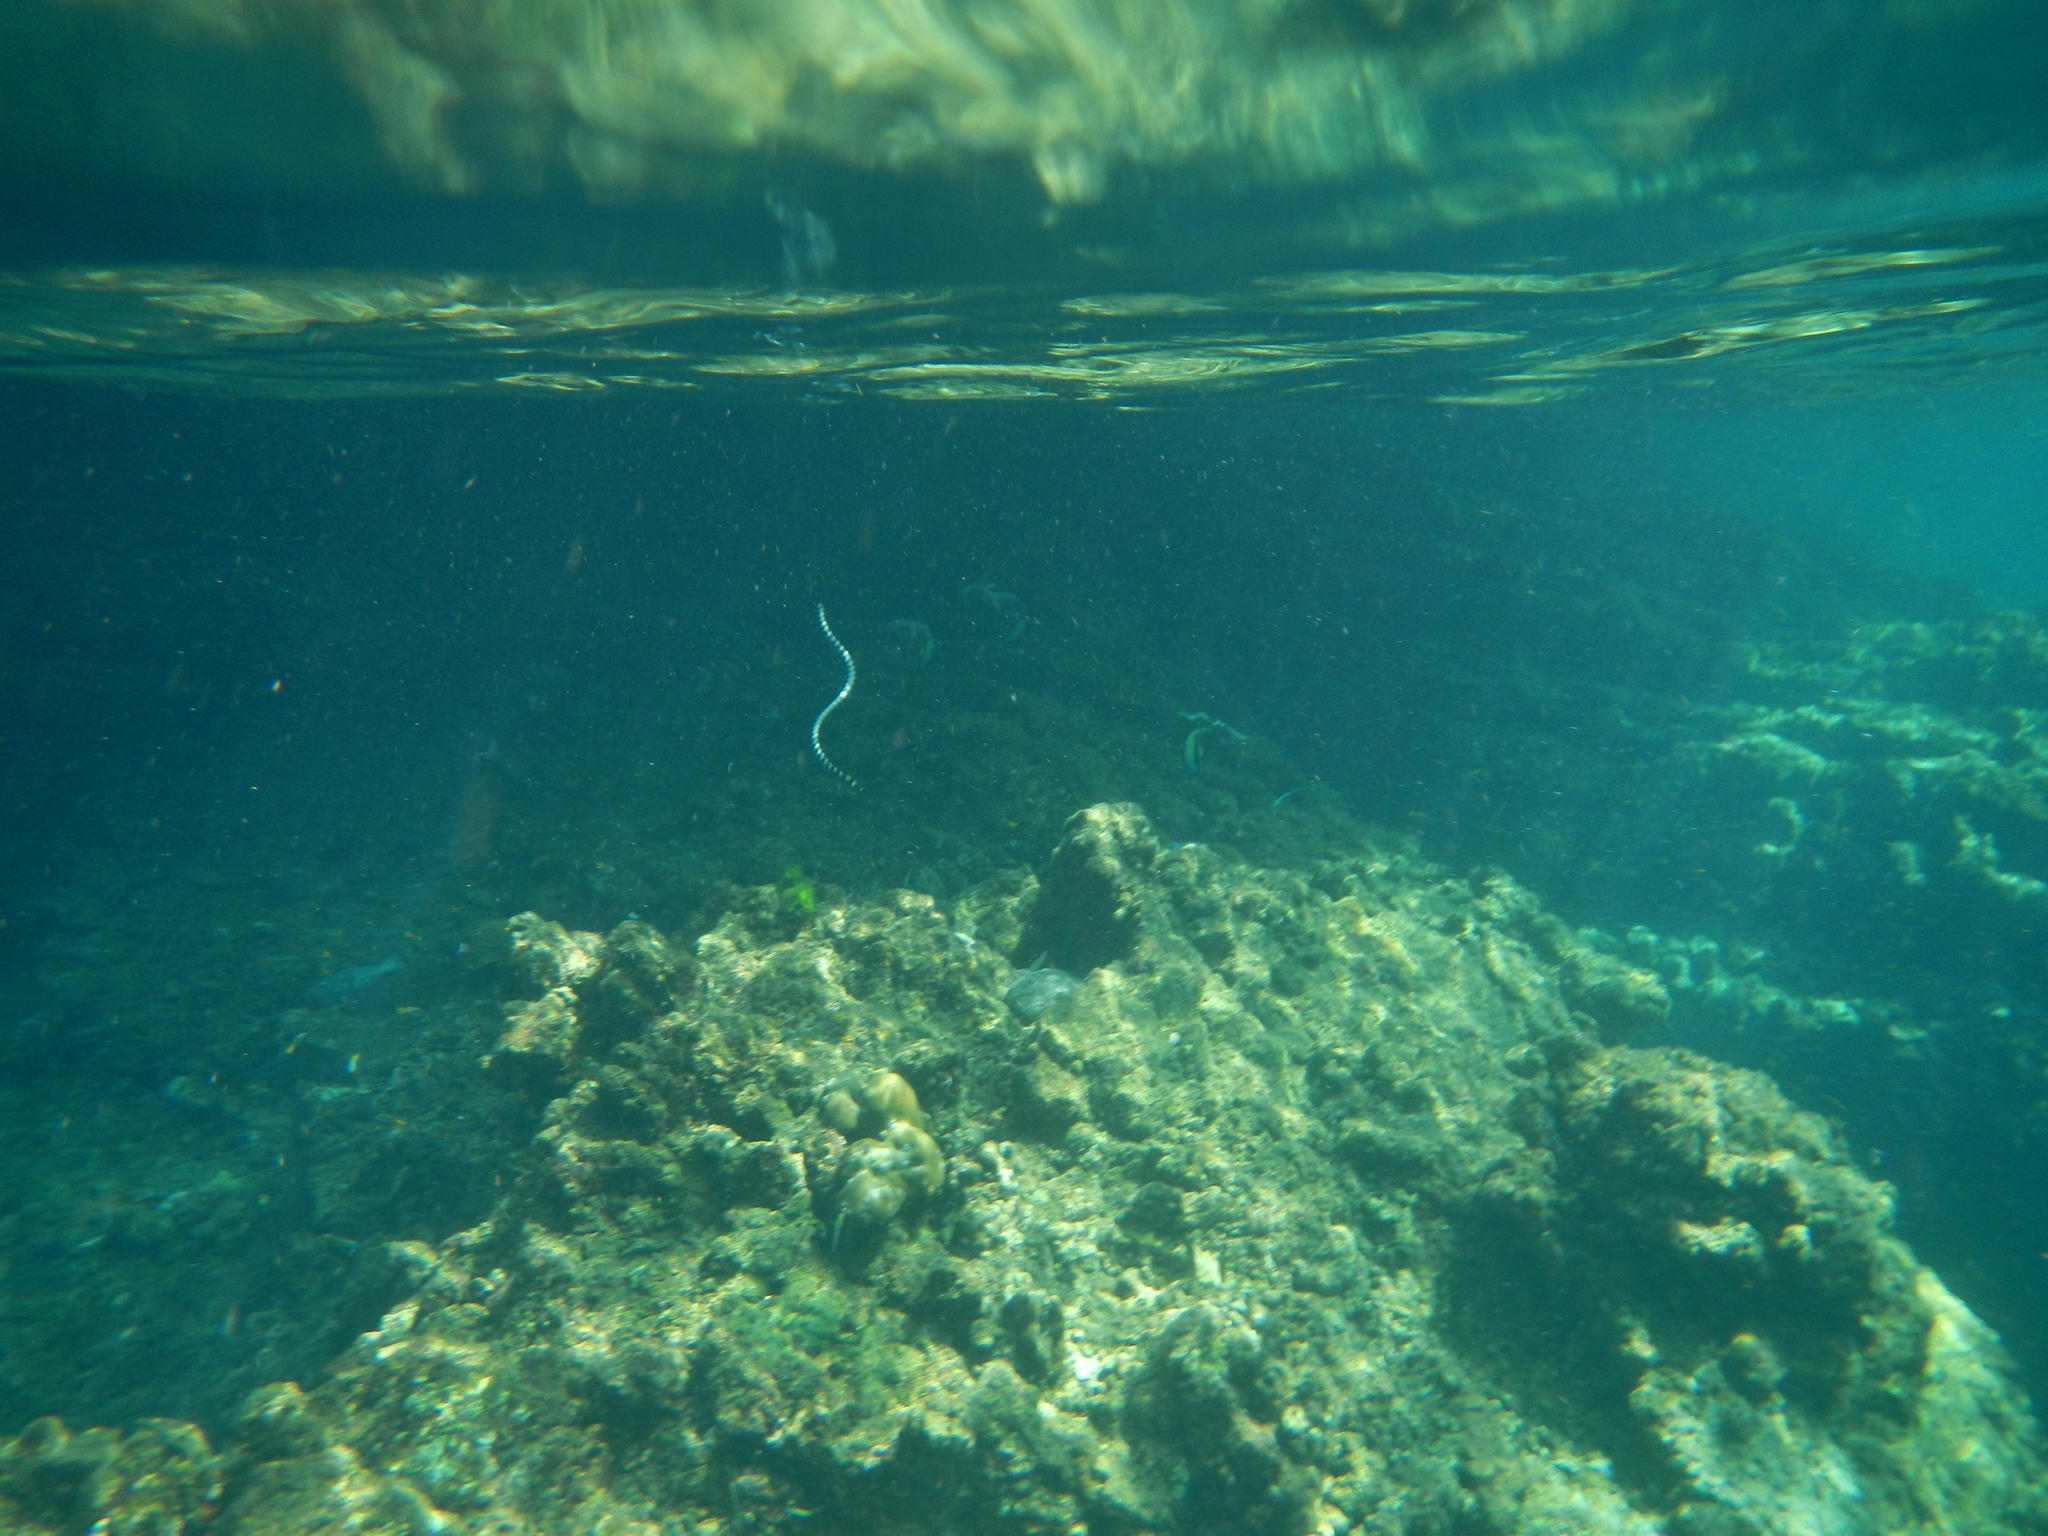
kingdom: Animalia
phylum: Chordata
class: Squamata
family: Elapidae
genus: Laticauda
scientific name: Laticauda colubrina
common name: Yellow-lipped sea krait
